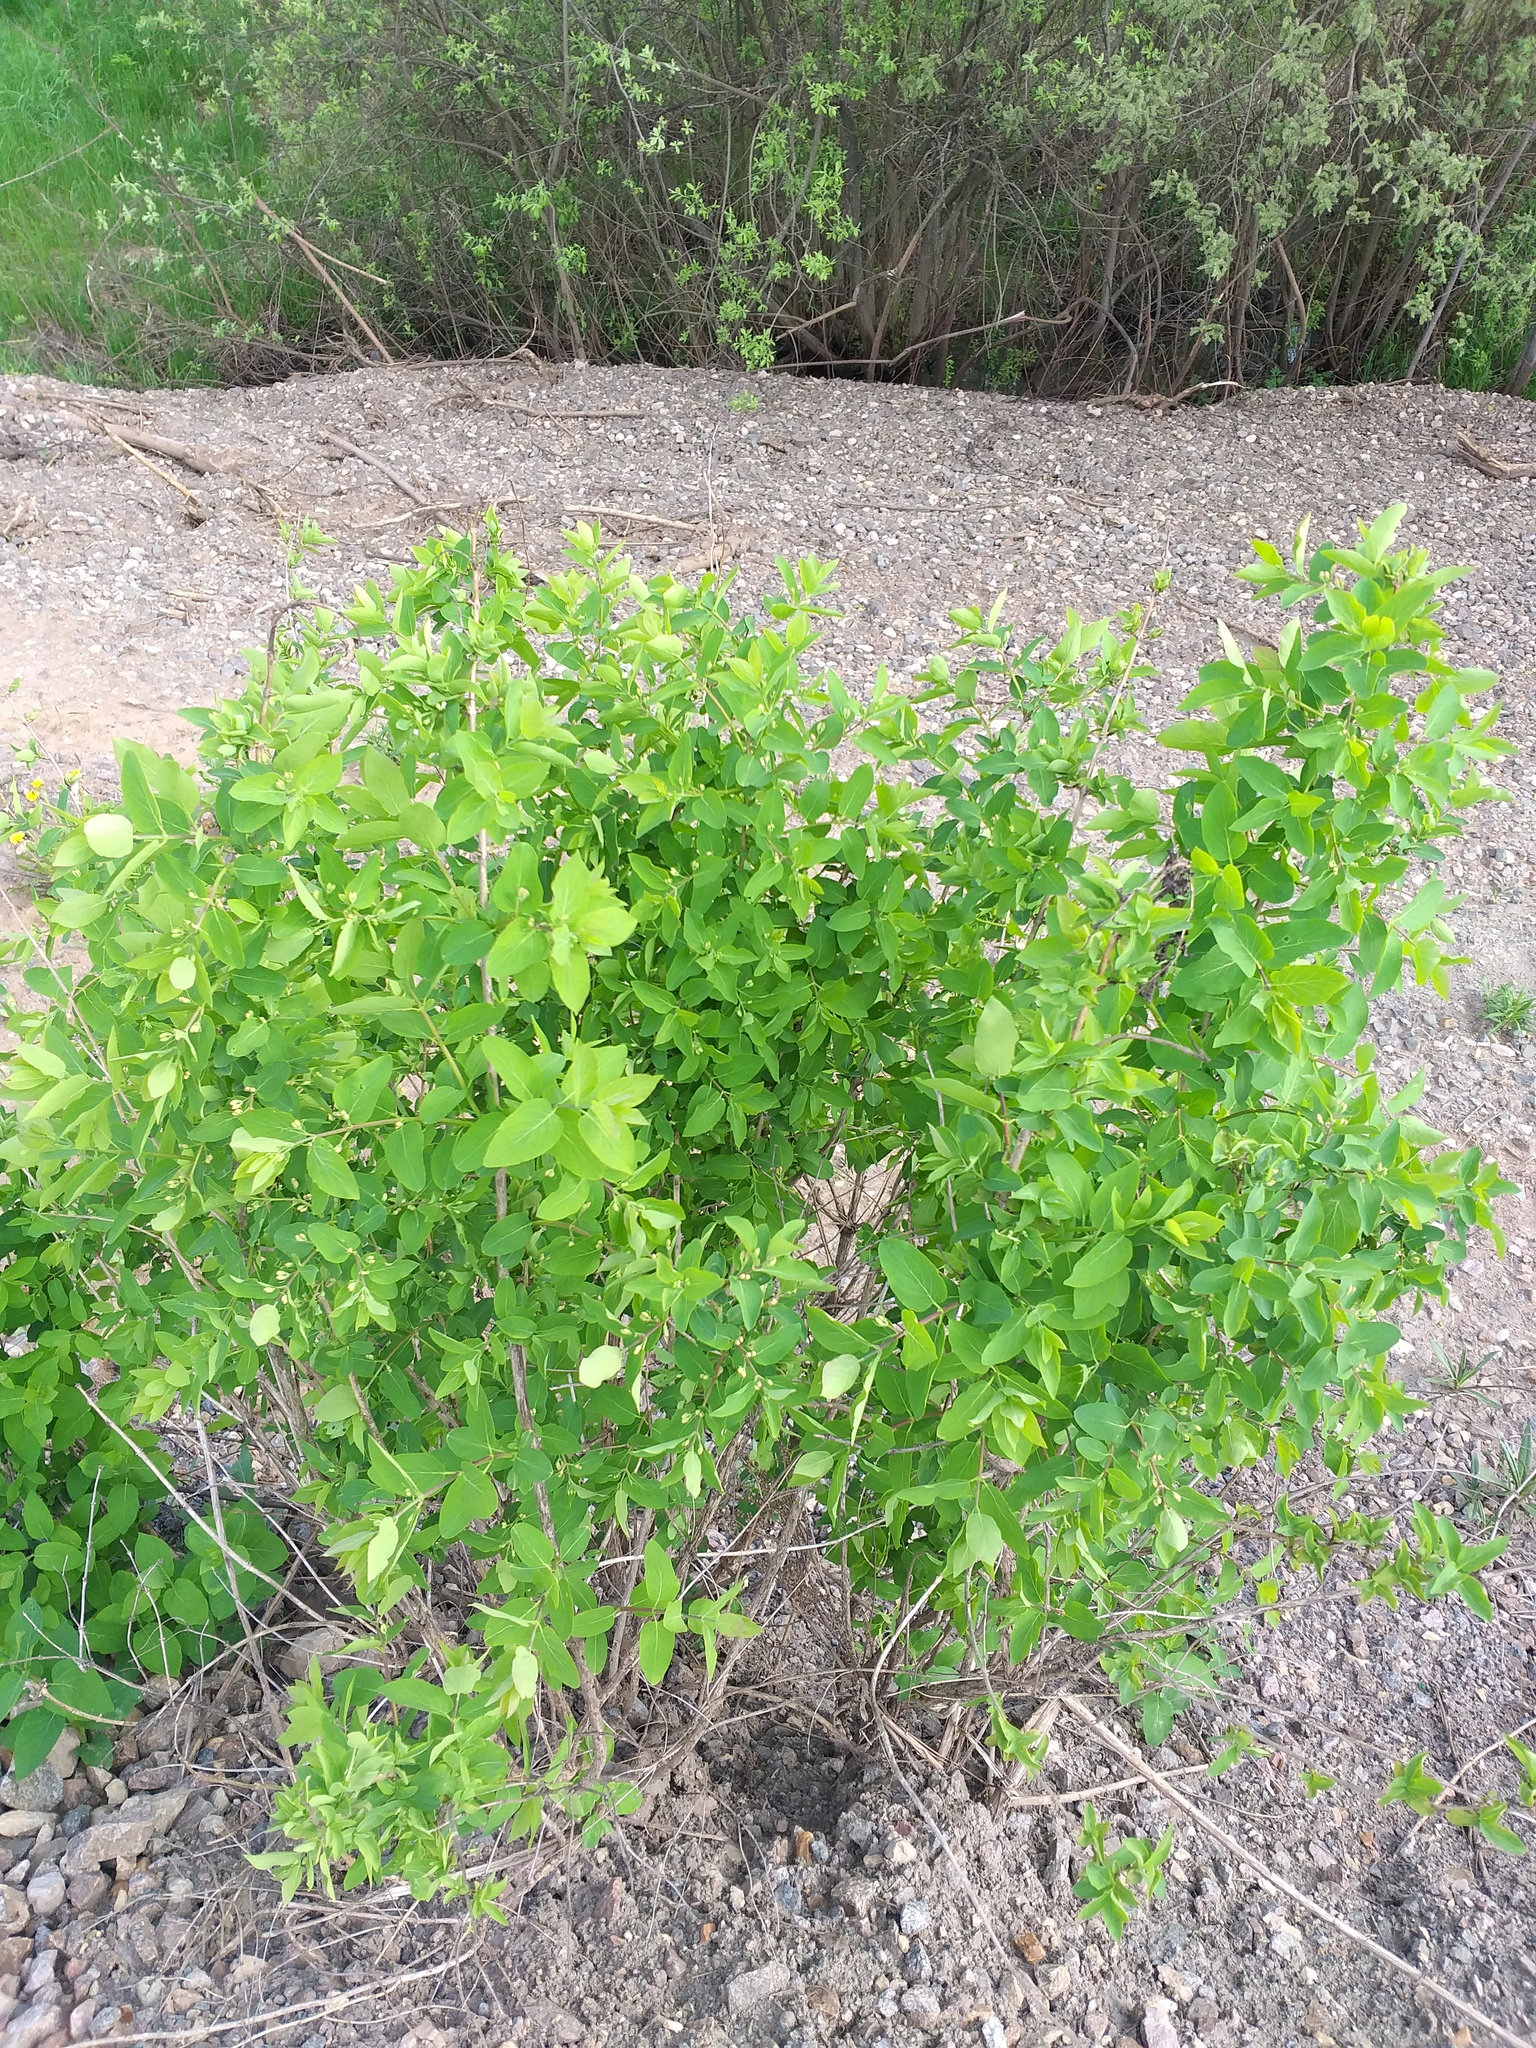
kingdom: Plantae
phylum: Tracheophyta
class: Magnoliopsida
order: Dipsacales
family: Caprifoliaceae
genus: Lonicera
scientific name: Lonicera tatarica
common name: Tatarian honeysuckle
